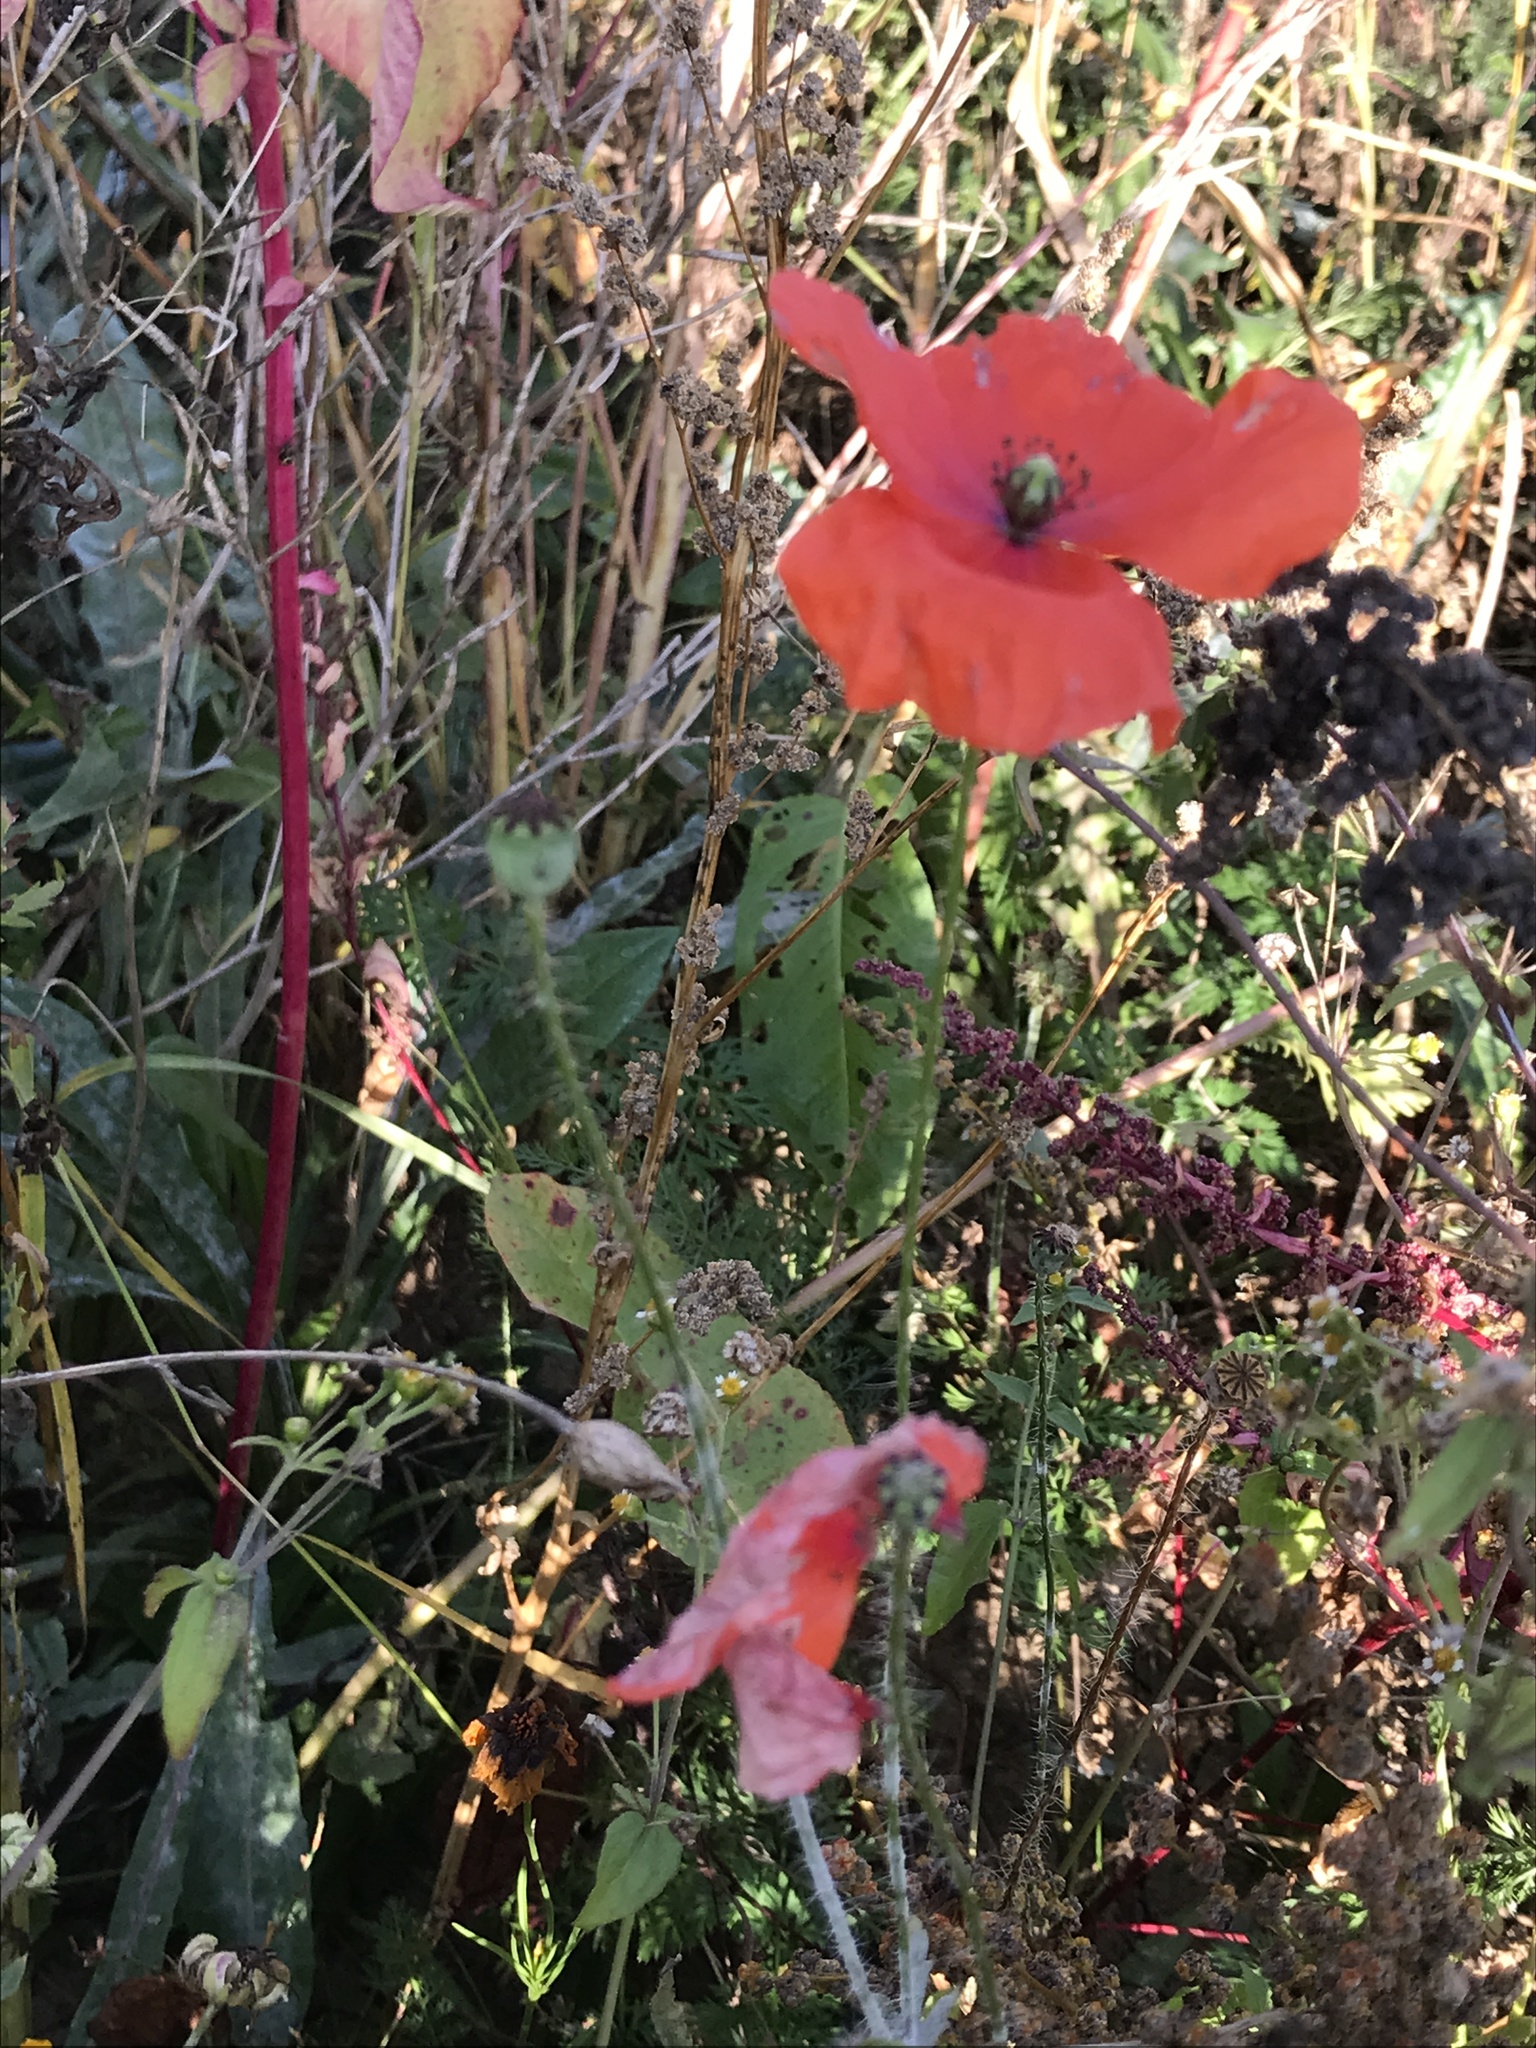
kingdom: Plantae
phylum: Tracheophyta
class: Magnoliopsida
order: Ranunculales
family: Papaveraceae
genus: Papaver
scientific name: Papaver rhoeas
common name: Corn poppy
